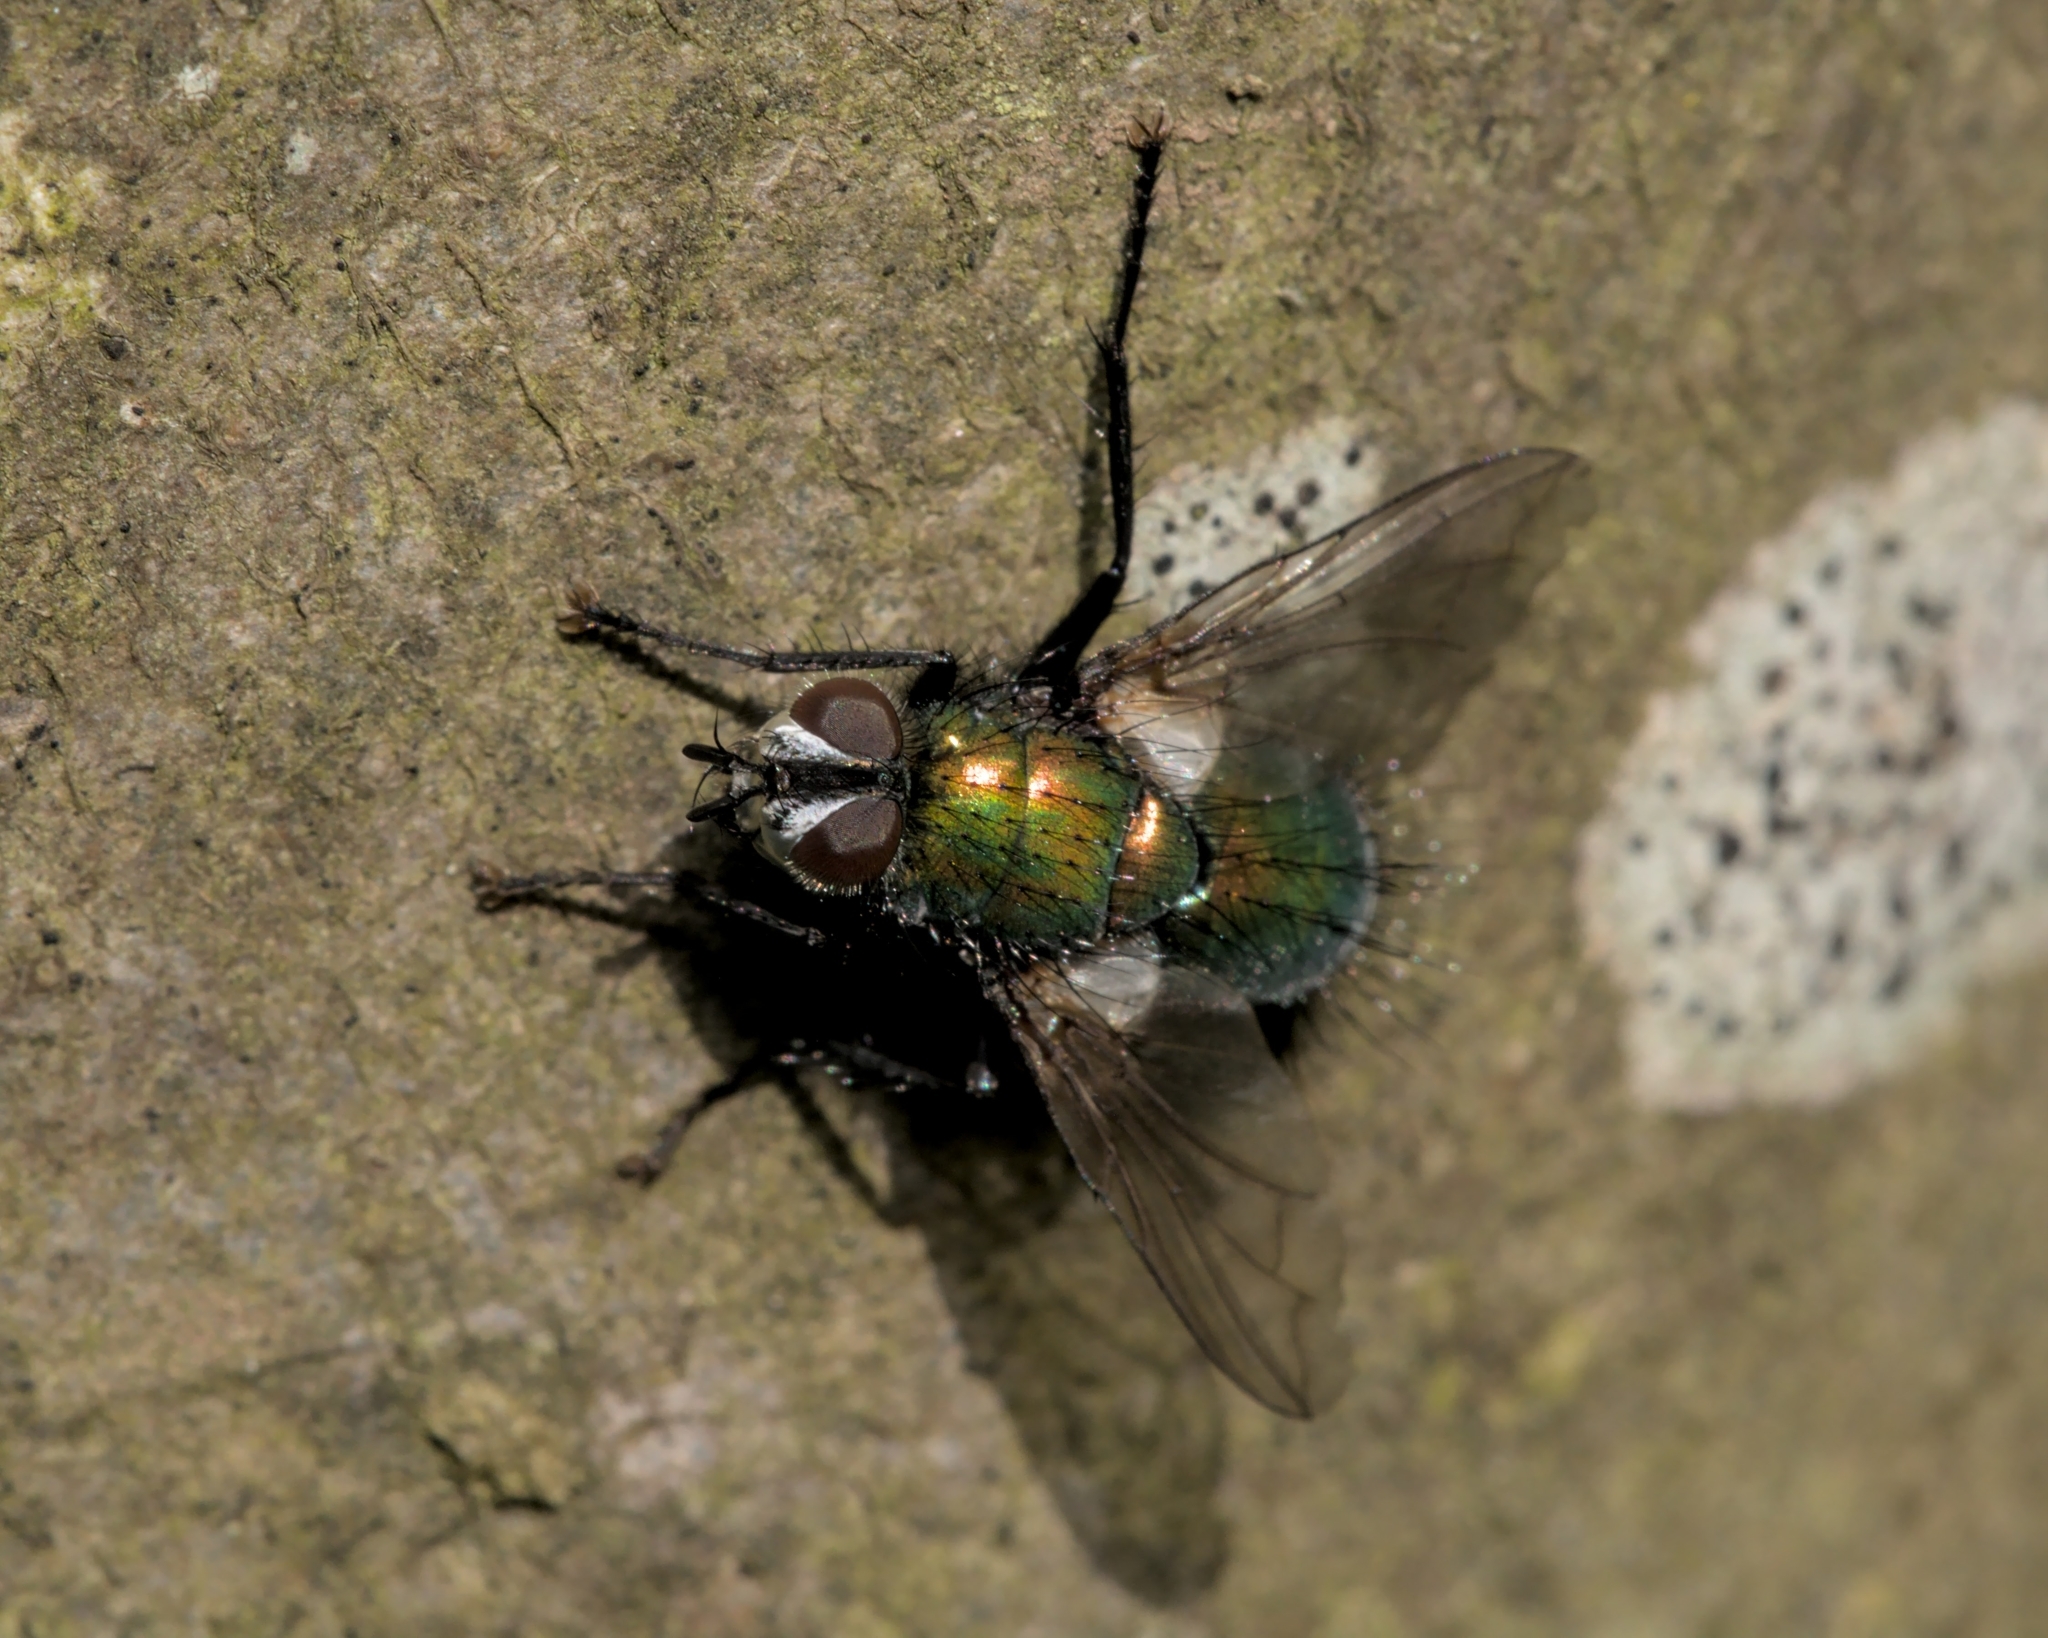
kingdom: Animalia
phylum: Arthropoda
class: Insecta
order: Diptera
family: Tachinidae
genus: Gymnocheta
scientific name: Gymnocheta viridis
